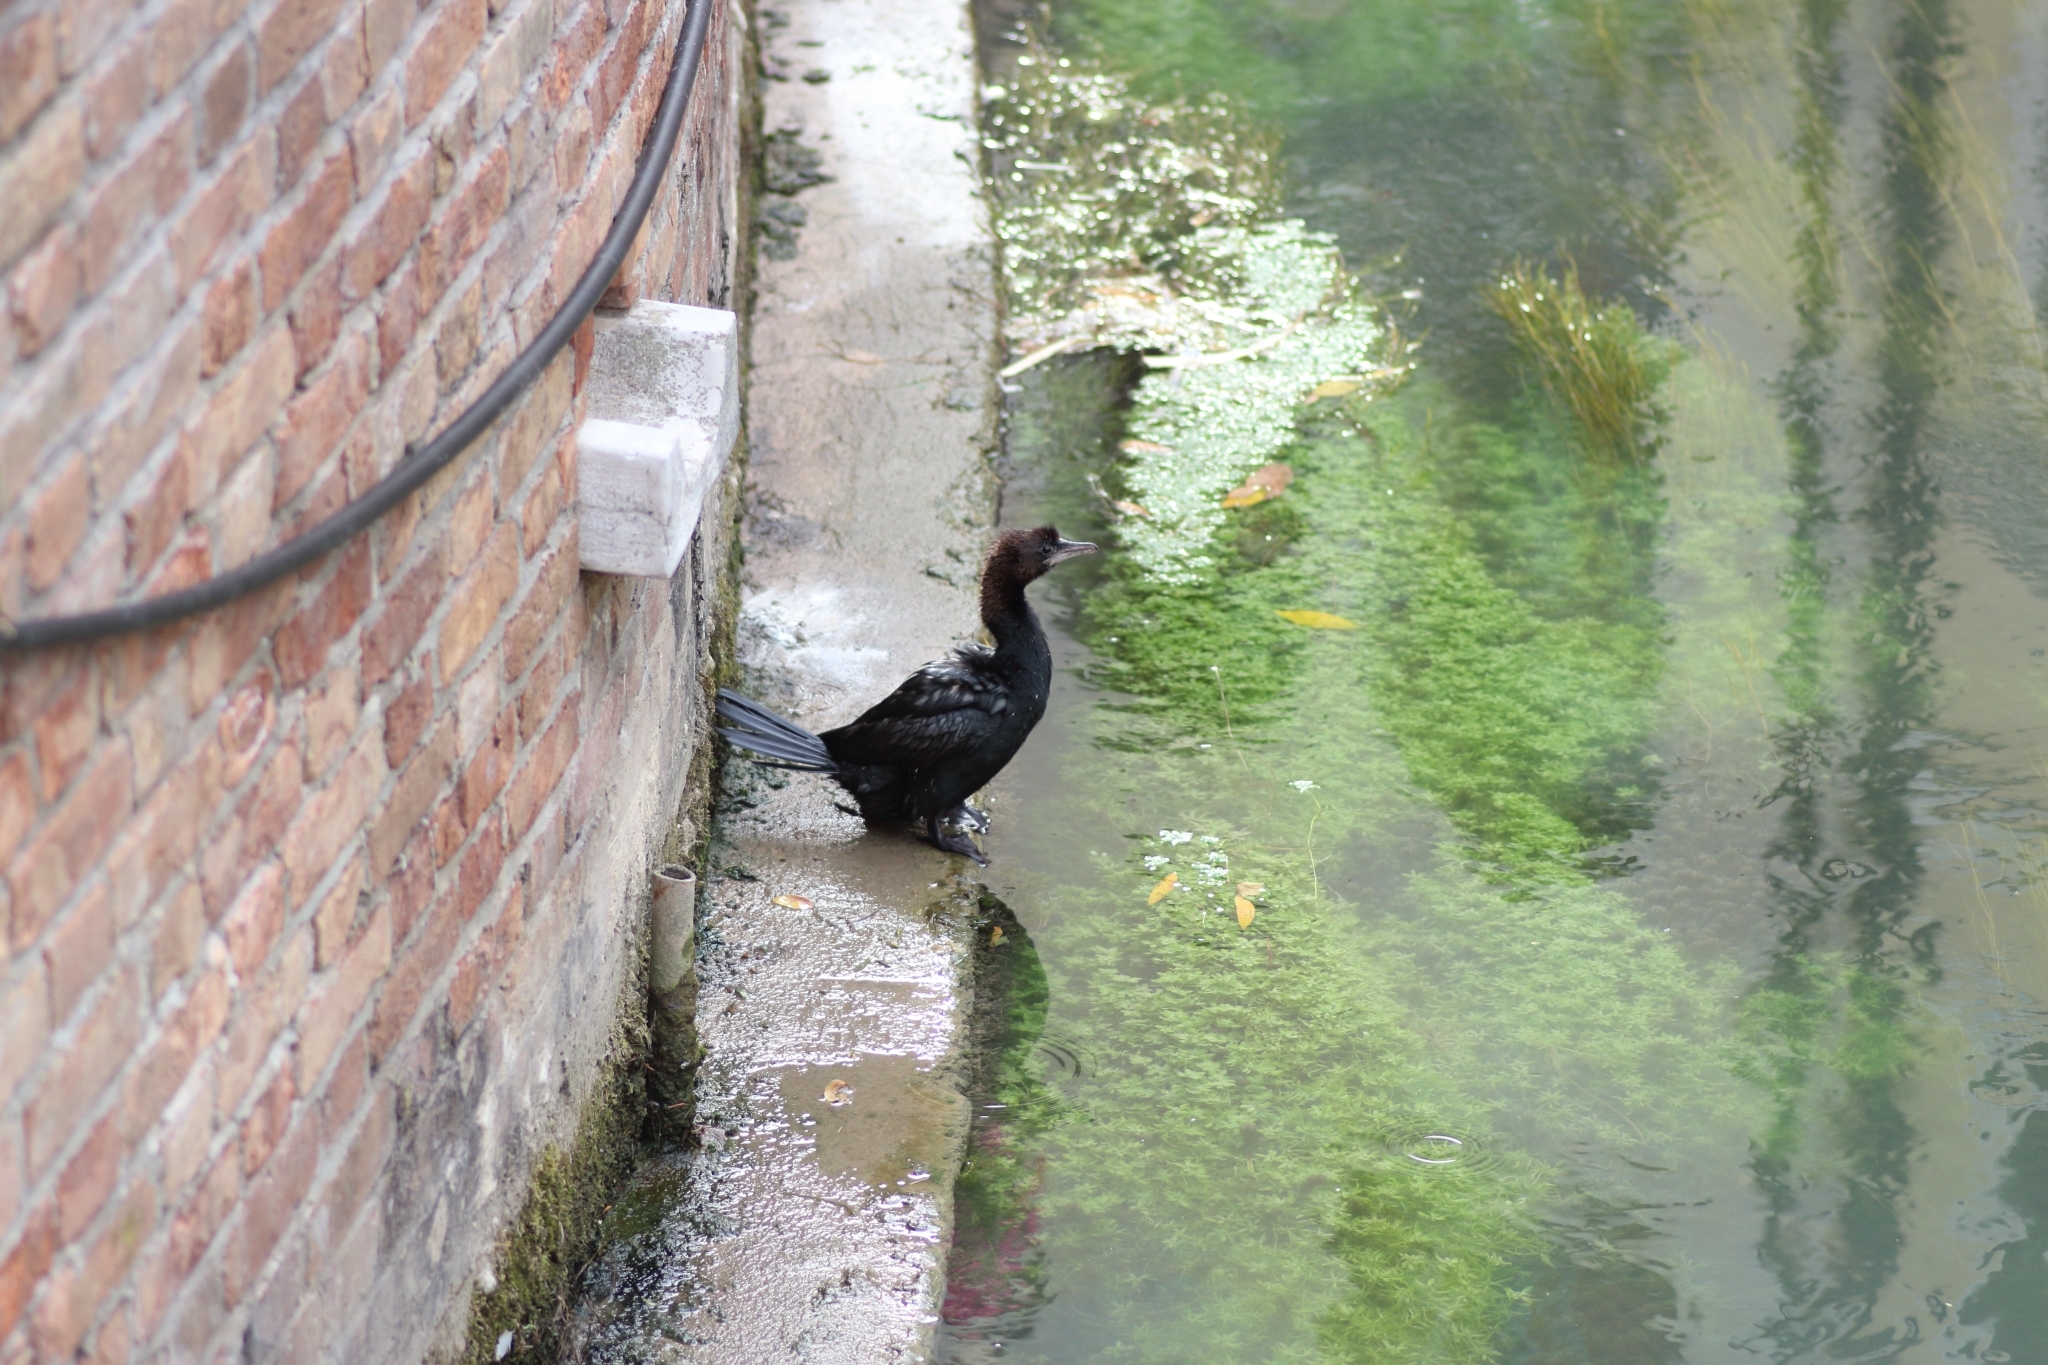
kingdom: Animalia
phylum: Chordata
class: Aves
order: Suliformes
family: Phalacrocoracidae
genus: Microcarbo
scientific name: Microcarbo pygmaeus
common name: Pygmy cormorant
